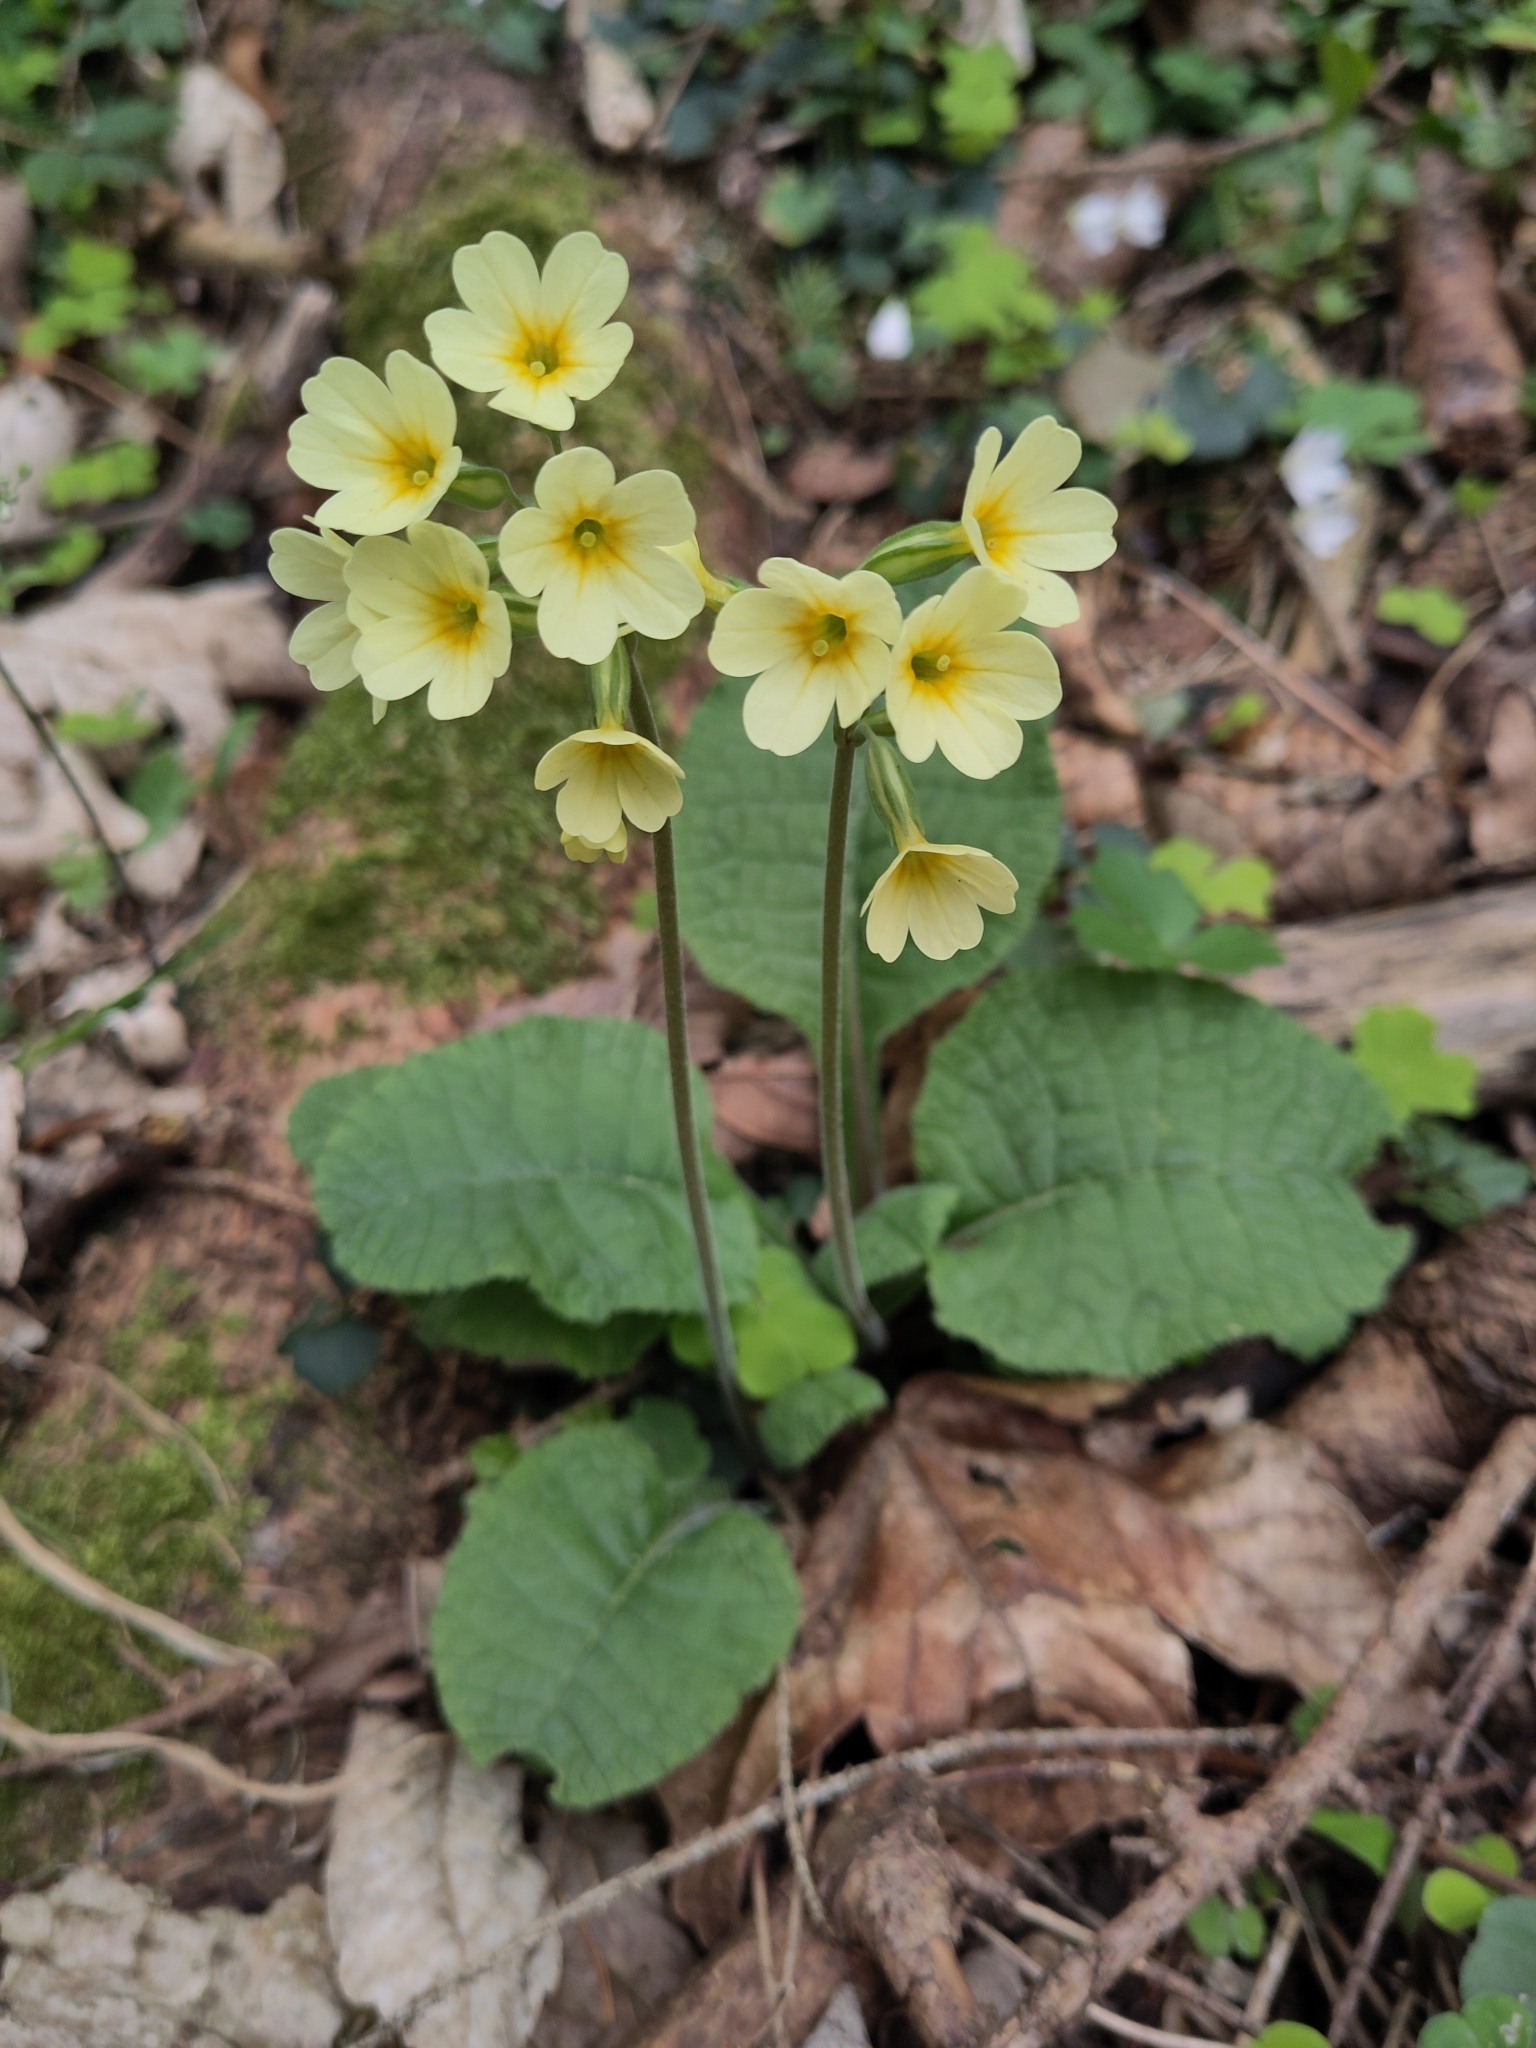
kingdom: Plantae
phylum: Tracheophyta
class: Magnoliopsida
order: Ericales
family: Primulaceae
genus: Primula
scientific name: Primula elatior
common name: Oxlip
